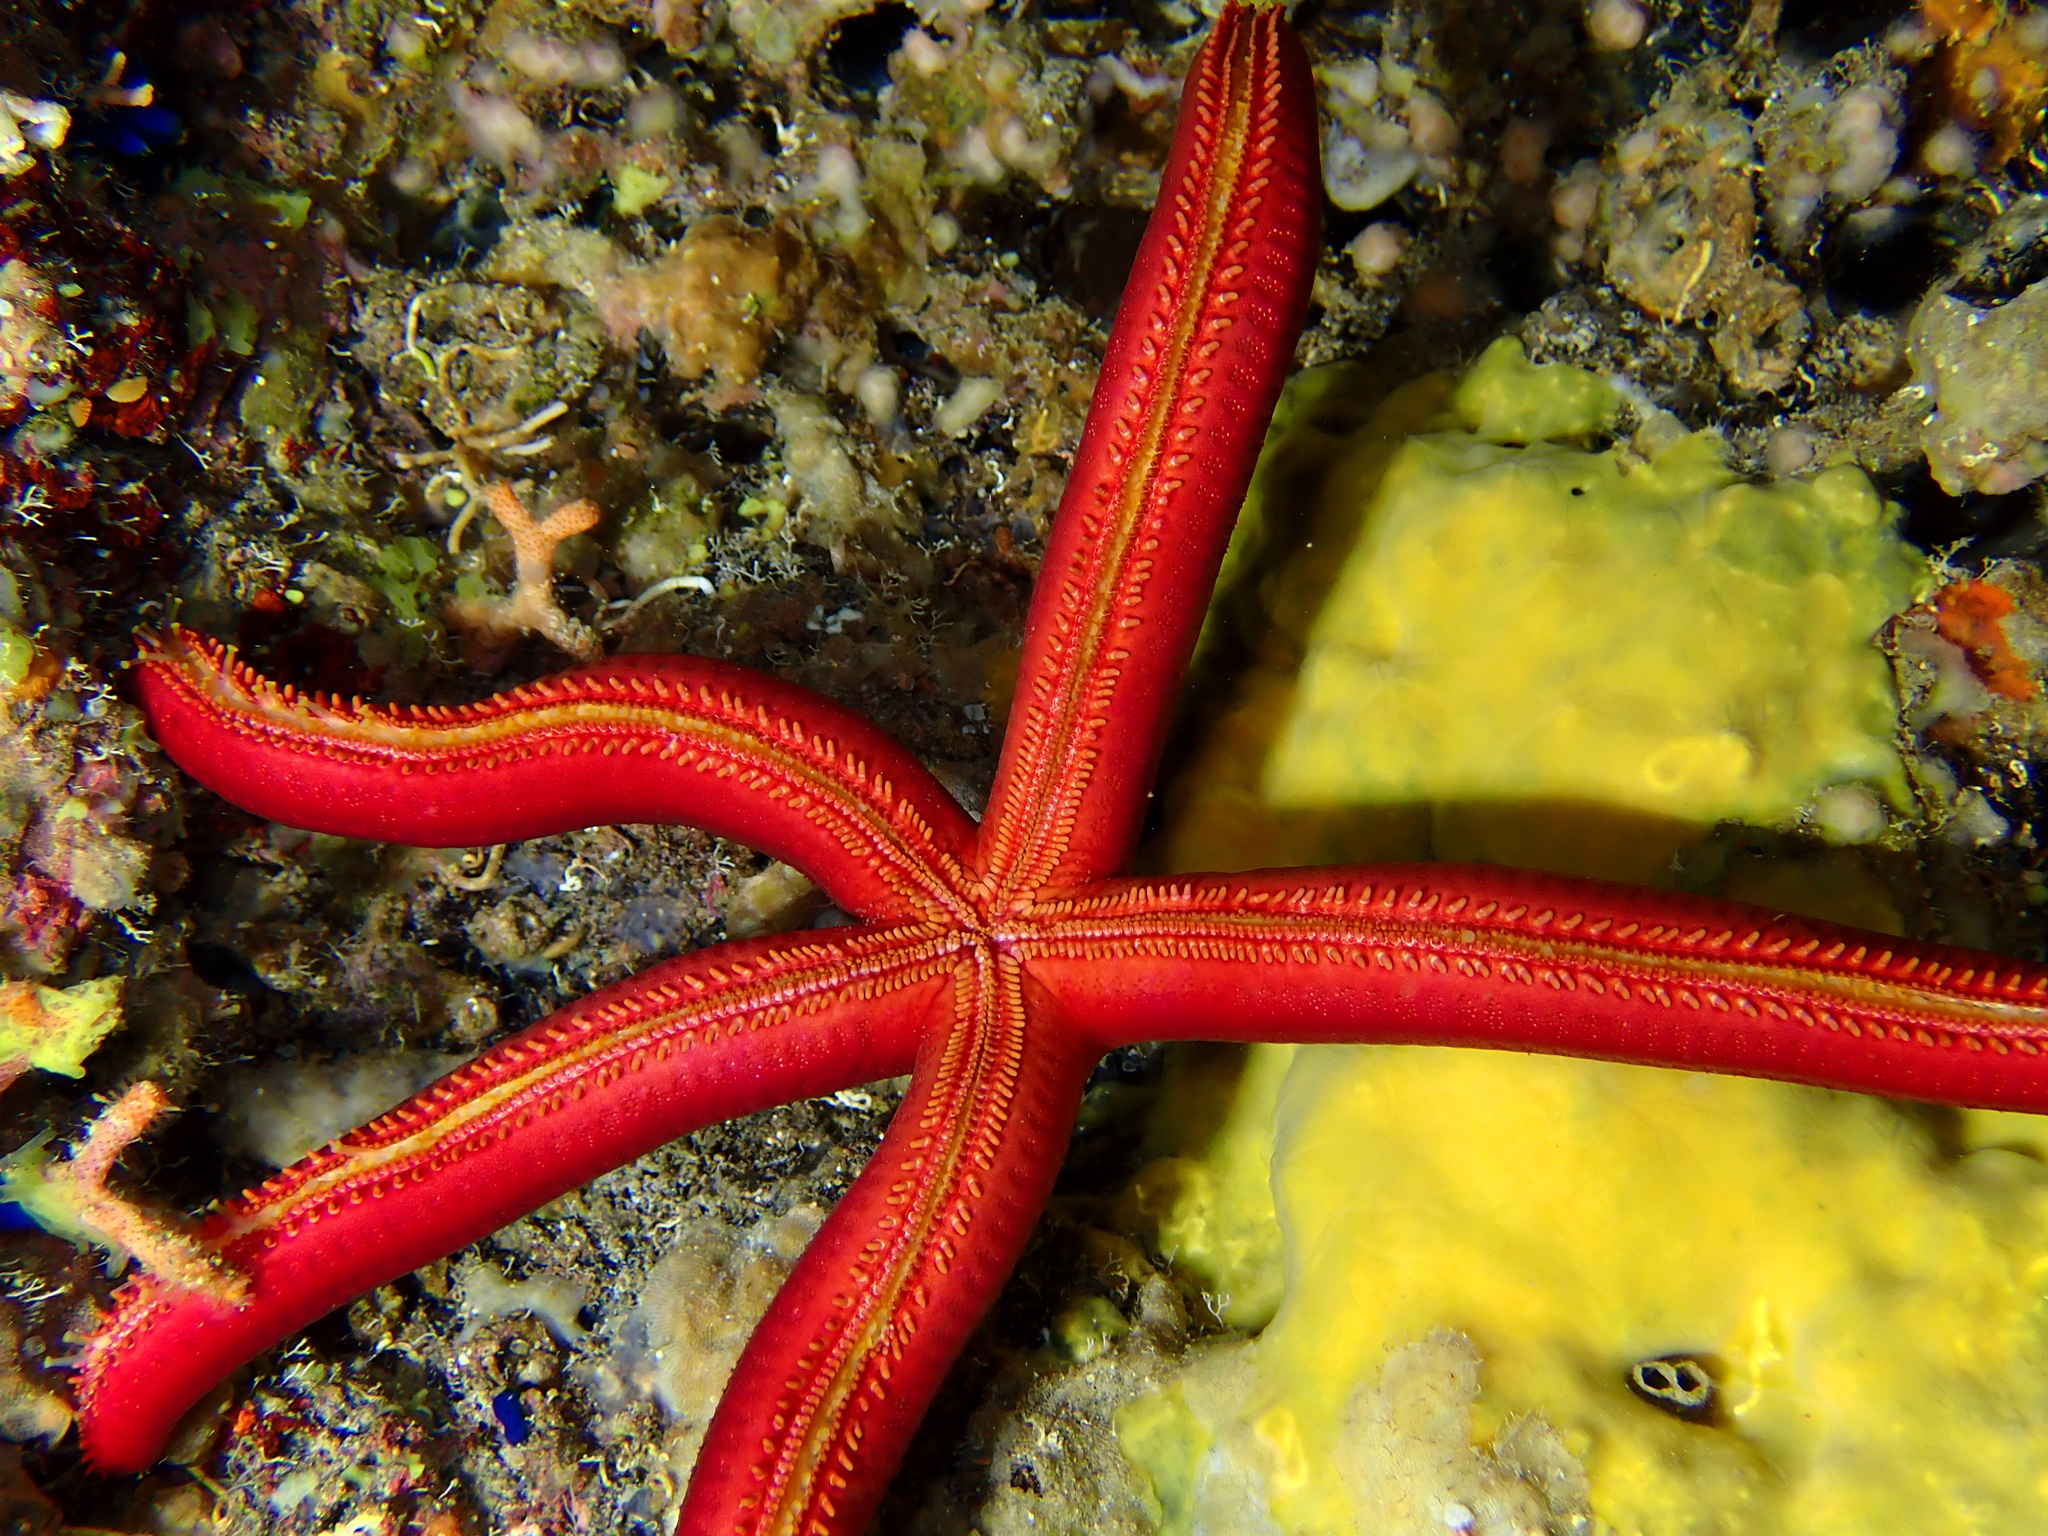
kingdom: Animalia
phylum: Echinodermata
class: Asteroidea
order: Valvatida
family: Ophidiasteridae
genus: Ophidiaster
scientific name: Ophidiaster ophidianus
